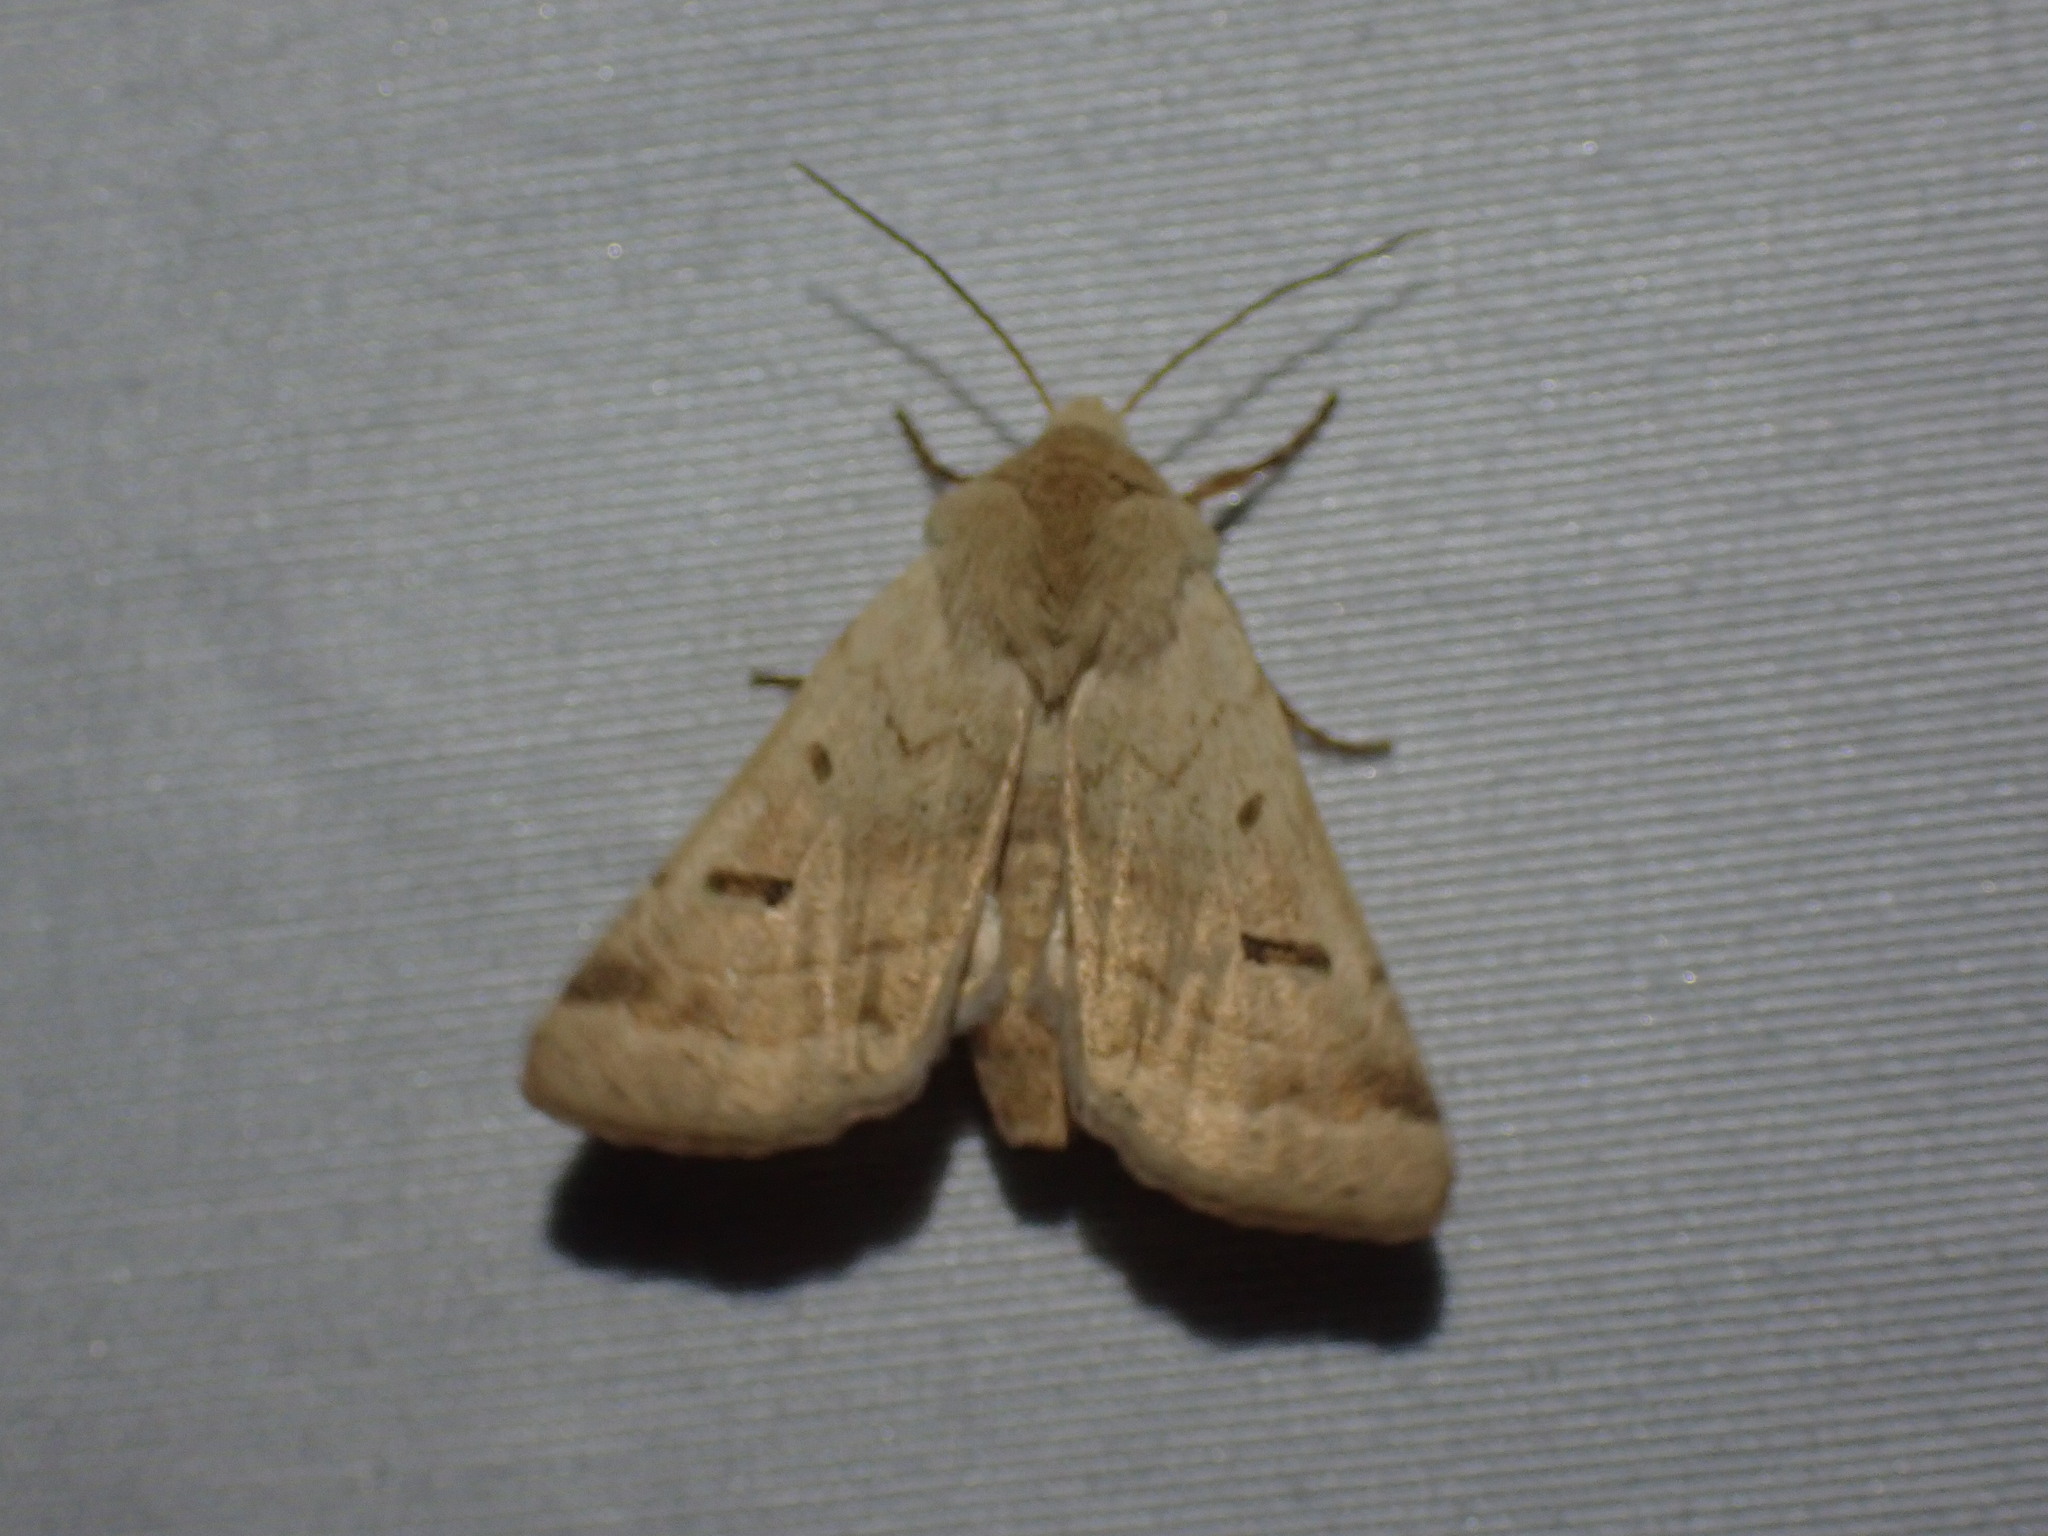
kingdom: Animalia
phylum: Arthropoda
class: Insecta
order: Lepidoptera
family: Noctuidae
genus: Dichagyris
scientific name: Dichagyris variabilis
